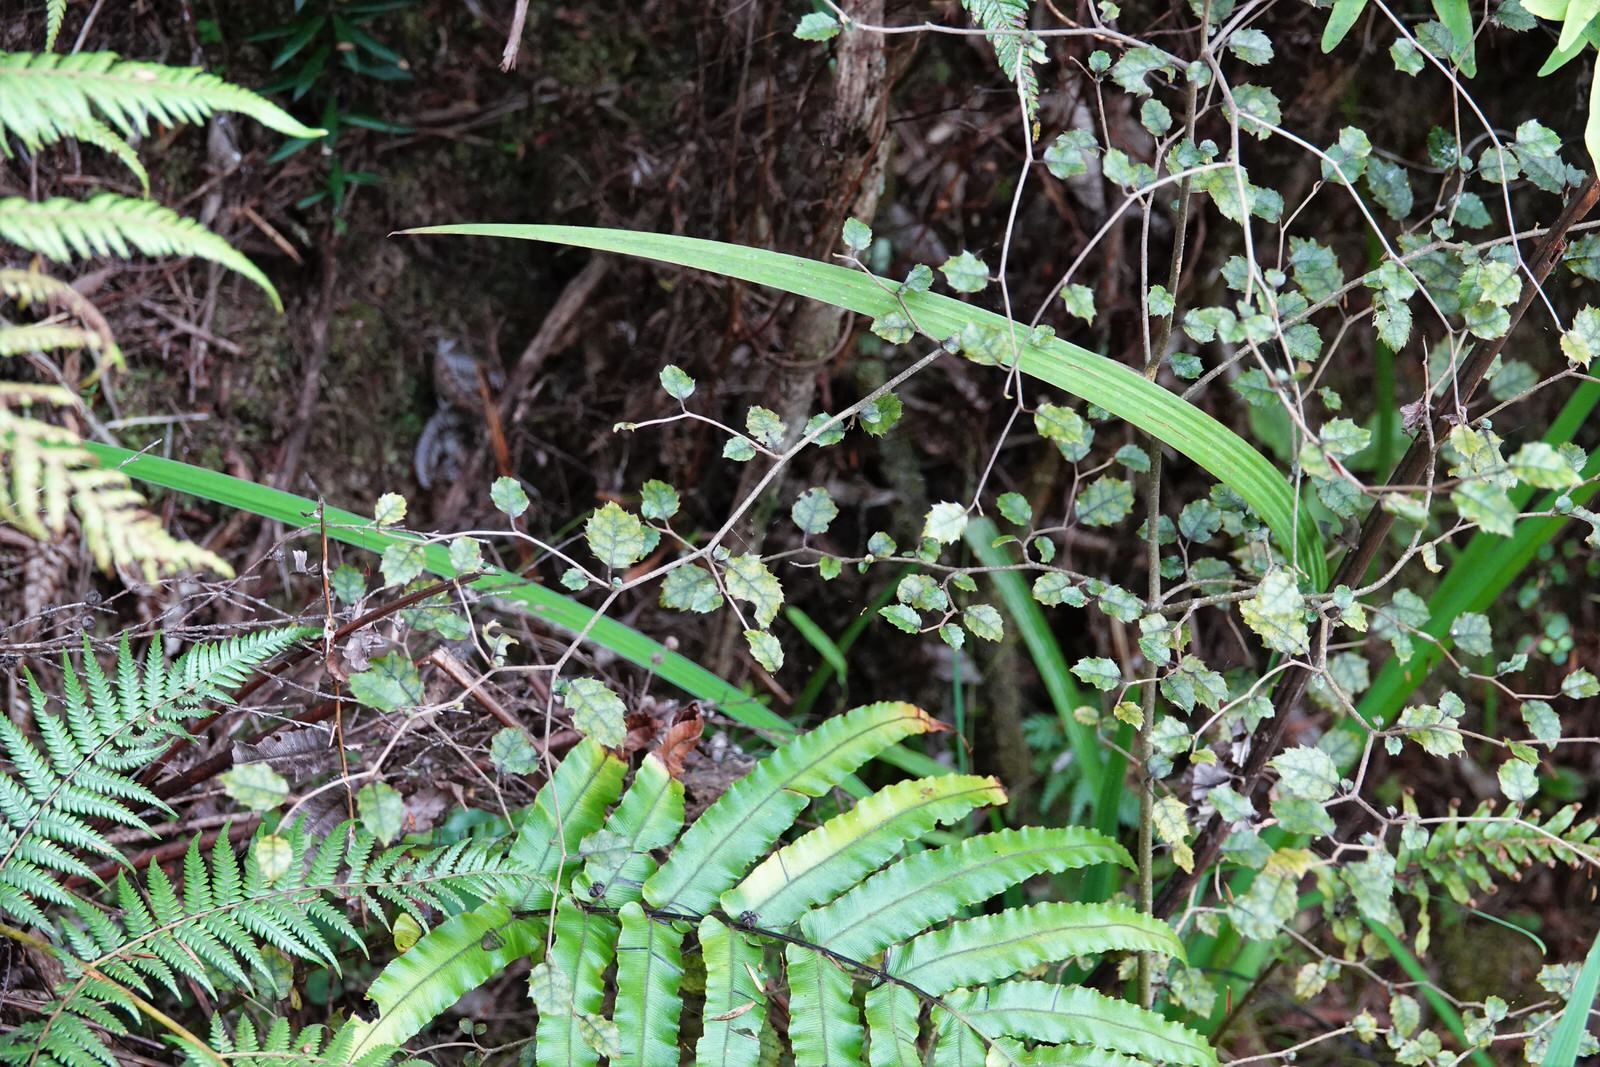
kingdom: Plantae
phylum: Tracheophyta
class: Magnoliopsida
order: Asterales
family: Rousseaceae
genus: Carpodetus
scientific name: Carpodetus serratus
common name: White mapau
